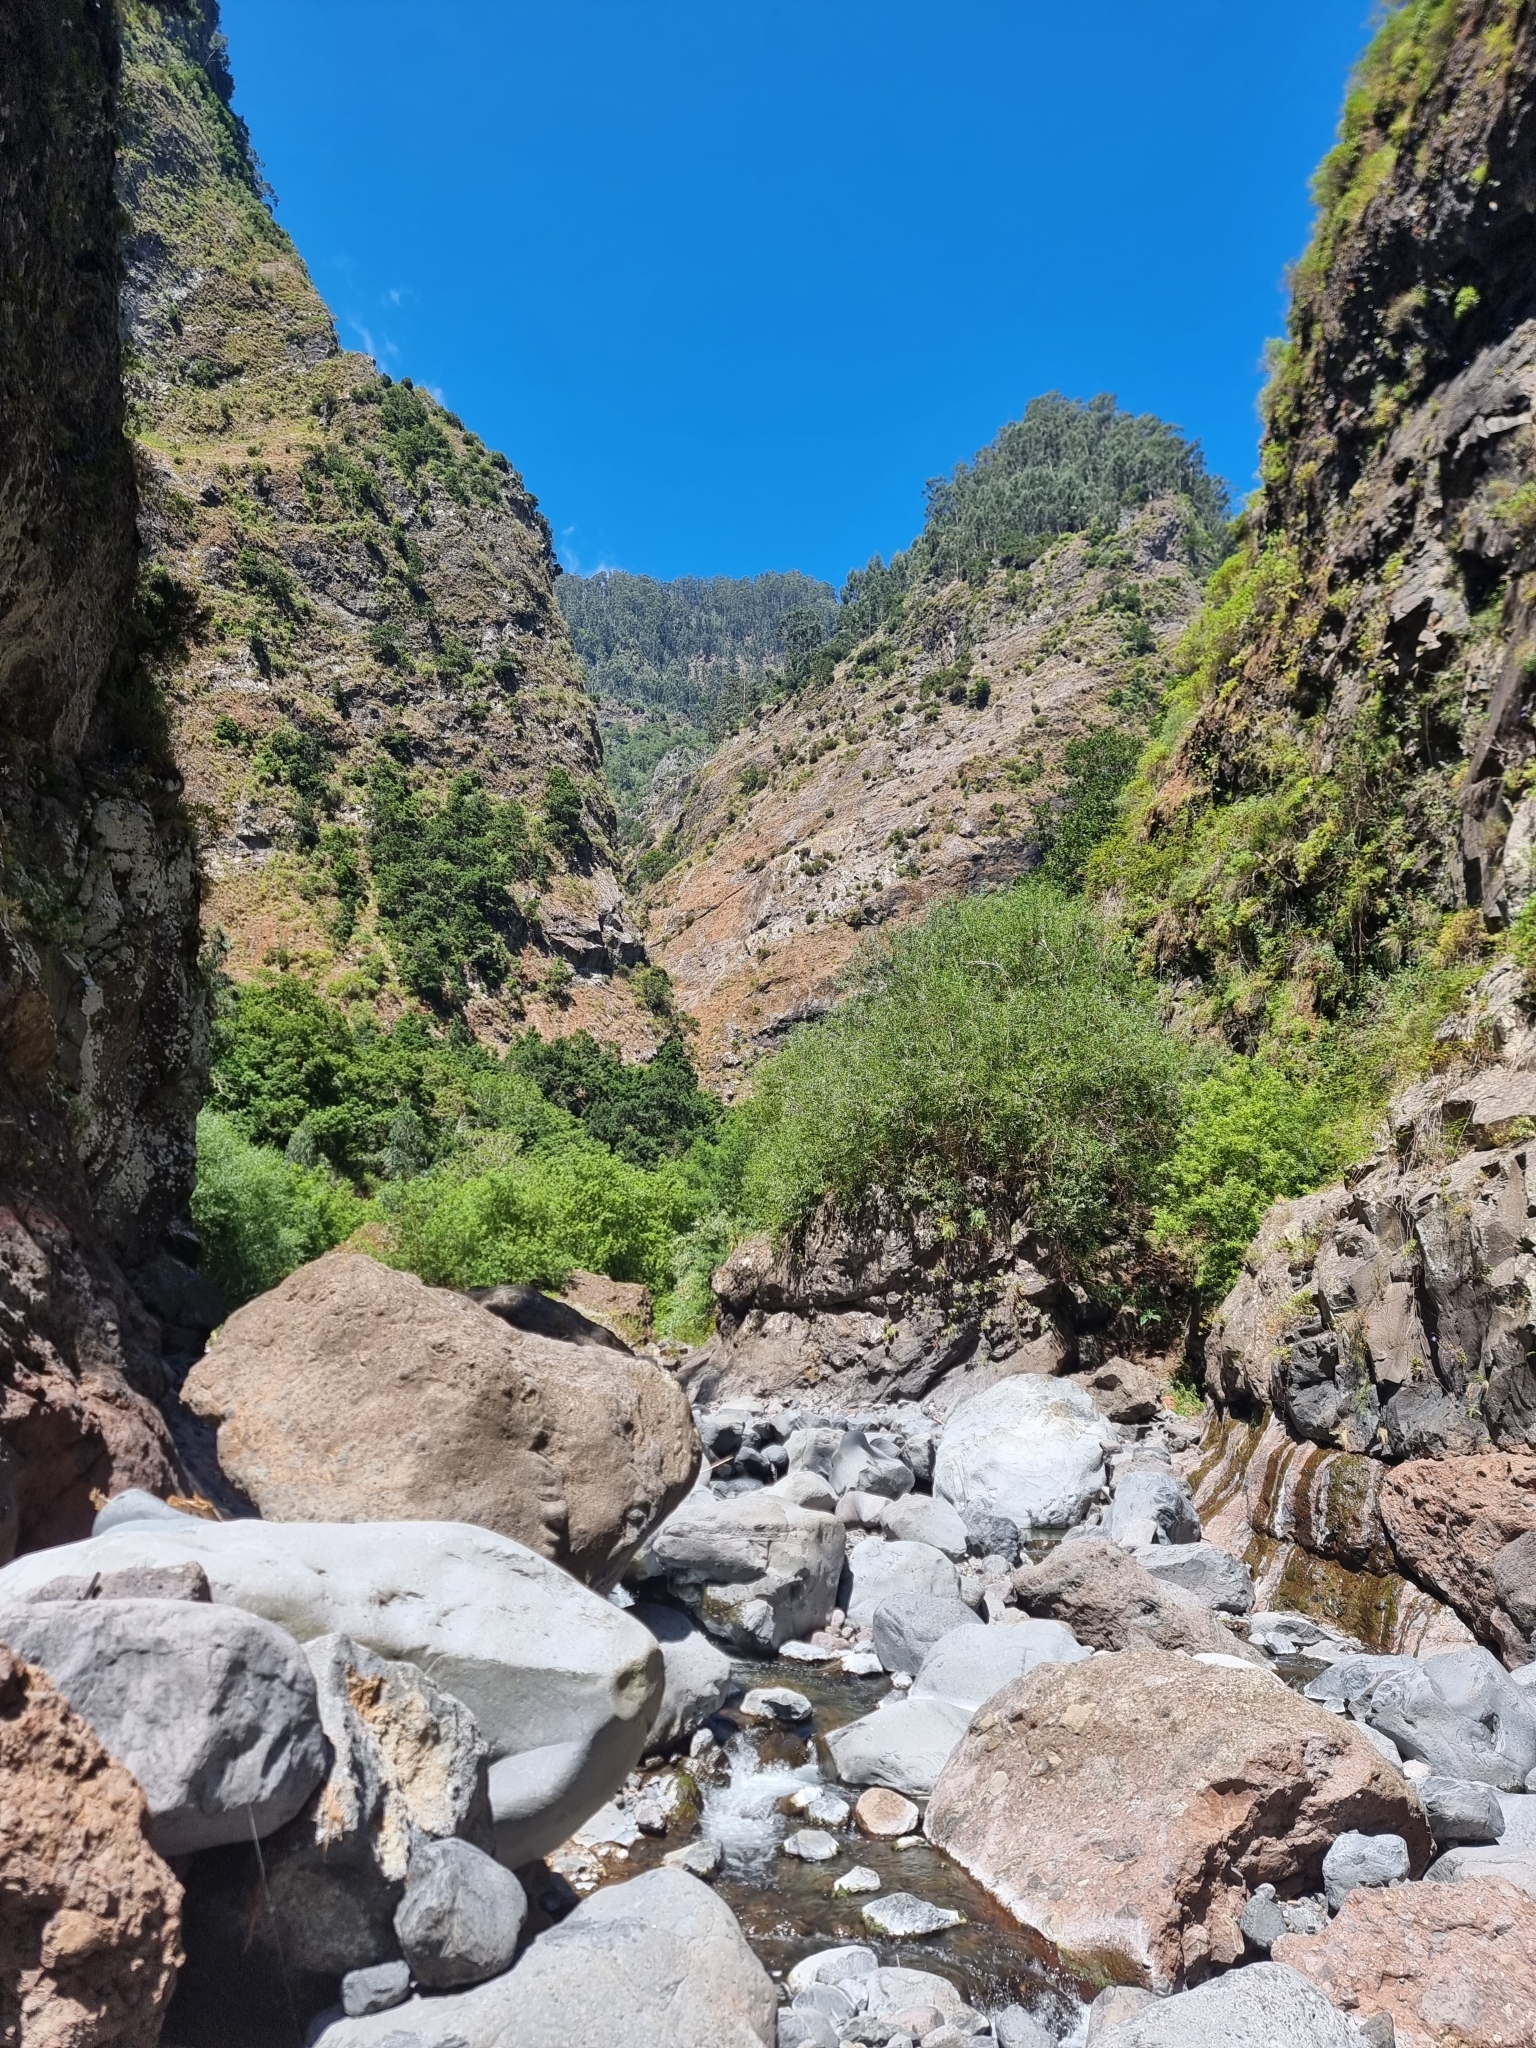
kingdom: Plantae
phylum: Tracheophyta
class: Magnoliopsida
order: Malpighiales
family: Salicaceae
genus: Salix
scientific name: Salix canariensis
